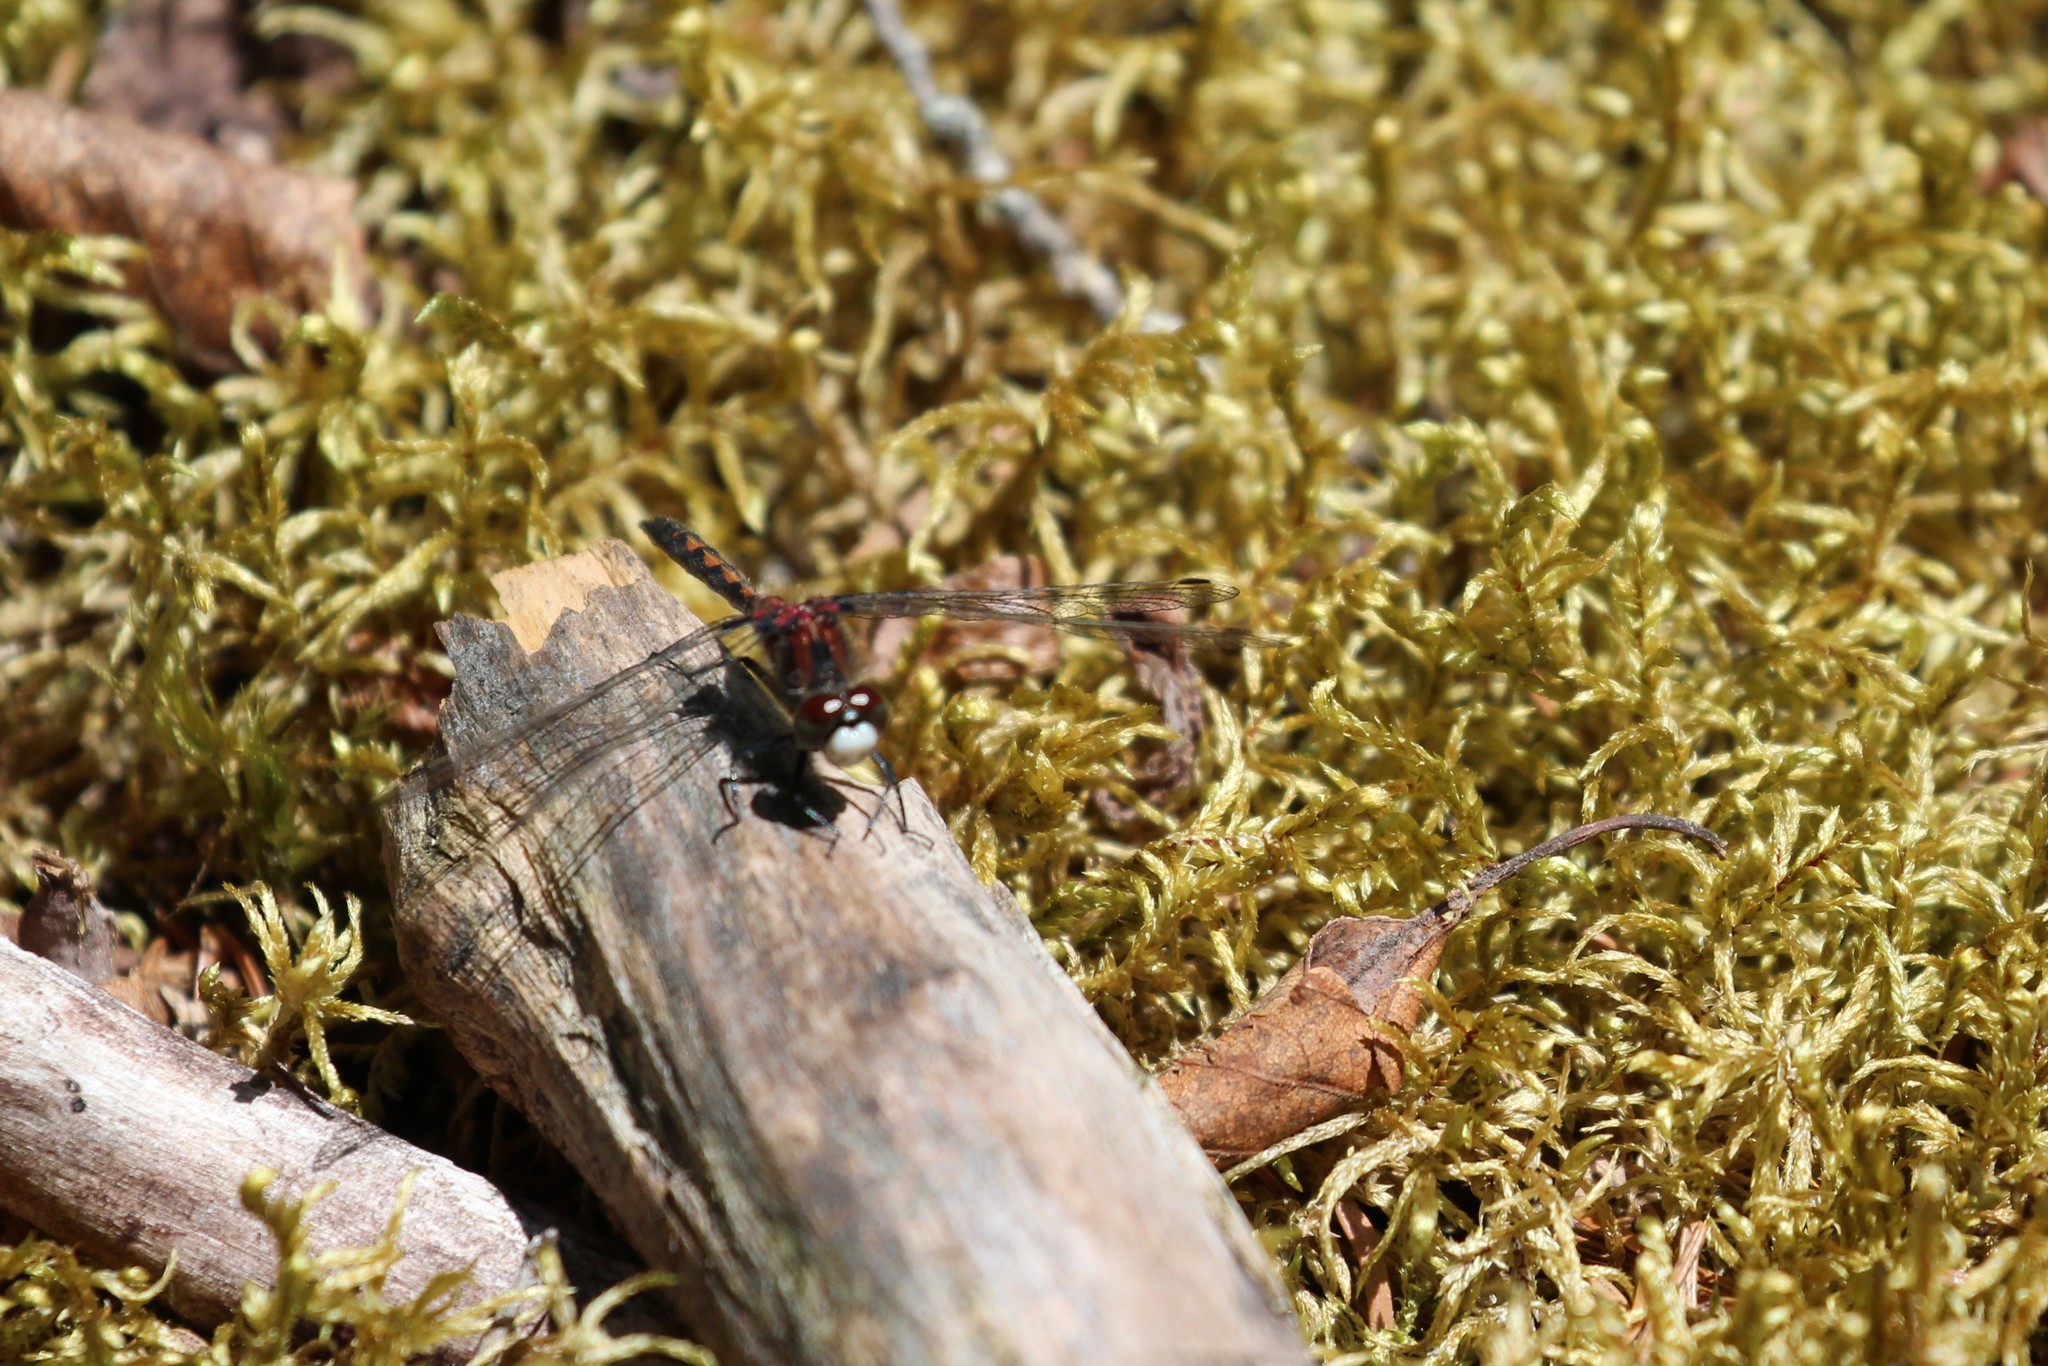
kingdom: Animalia
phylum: Arthropoda
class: Insecta
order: Odonata
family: Libellulidae
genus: Leucorrhinia
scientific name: Leucorrhinia hudsonica
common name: Hudsonian whiteface
